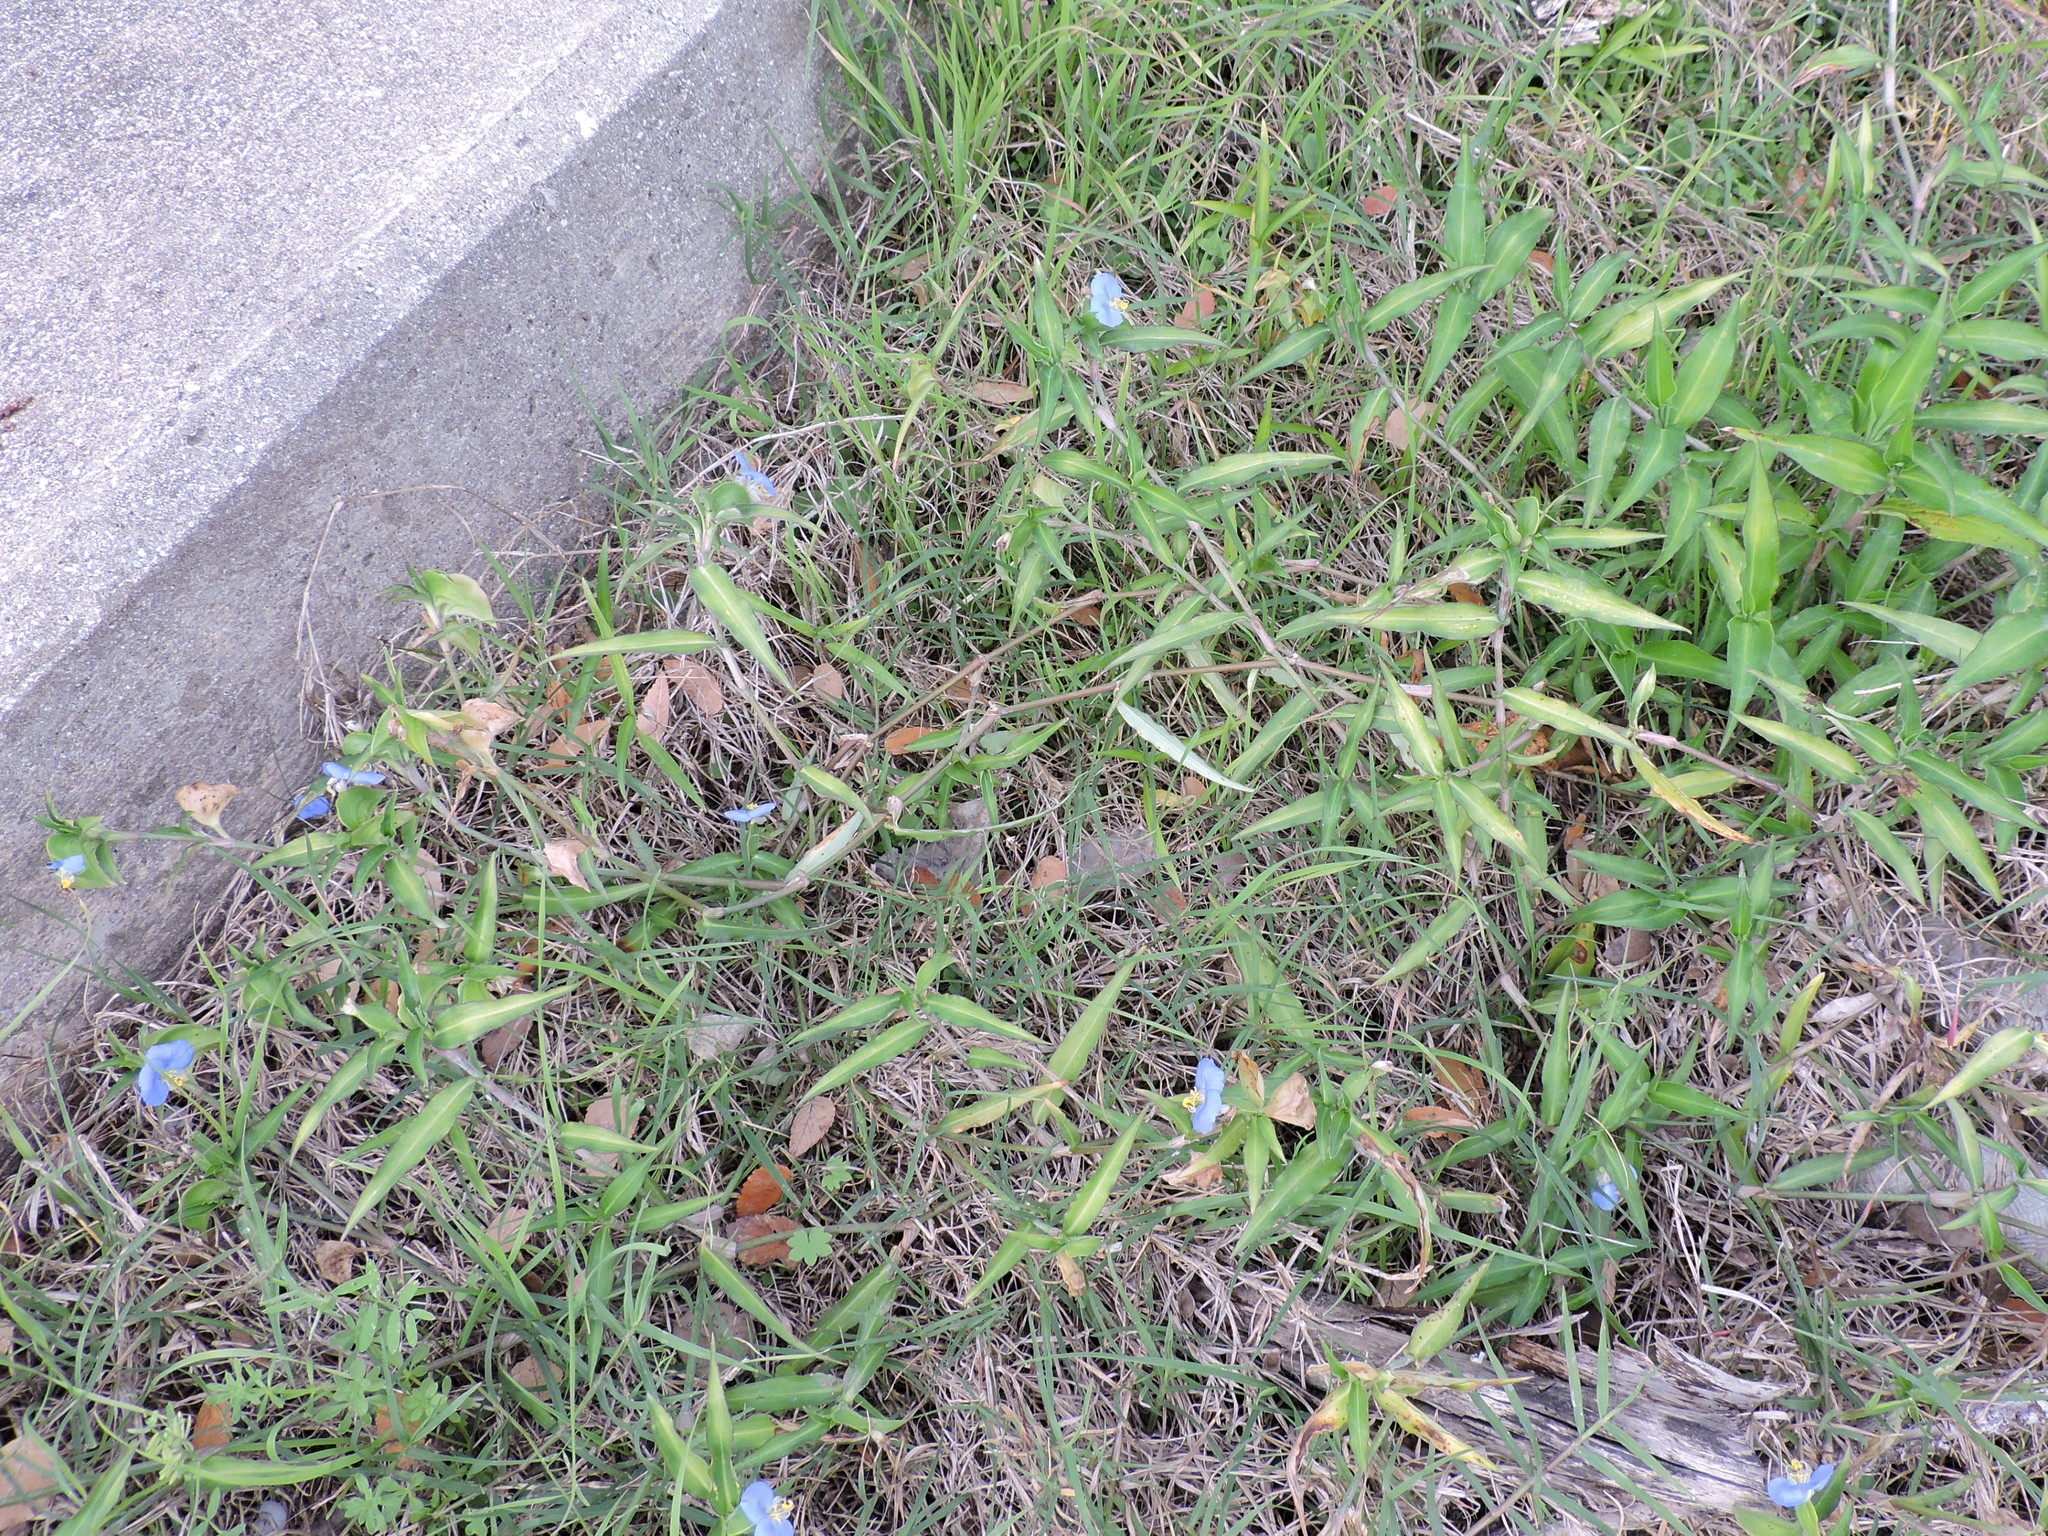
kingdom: Plantae
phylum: Tracheophyta
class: Liliopsida
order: Commelinales
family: Commelinaceae
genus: Commelina
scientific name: Commelina erecta
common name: Blousel blommetjie
